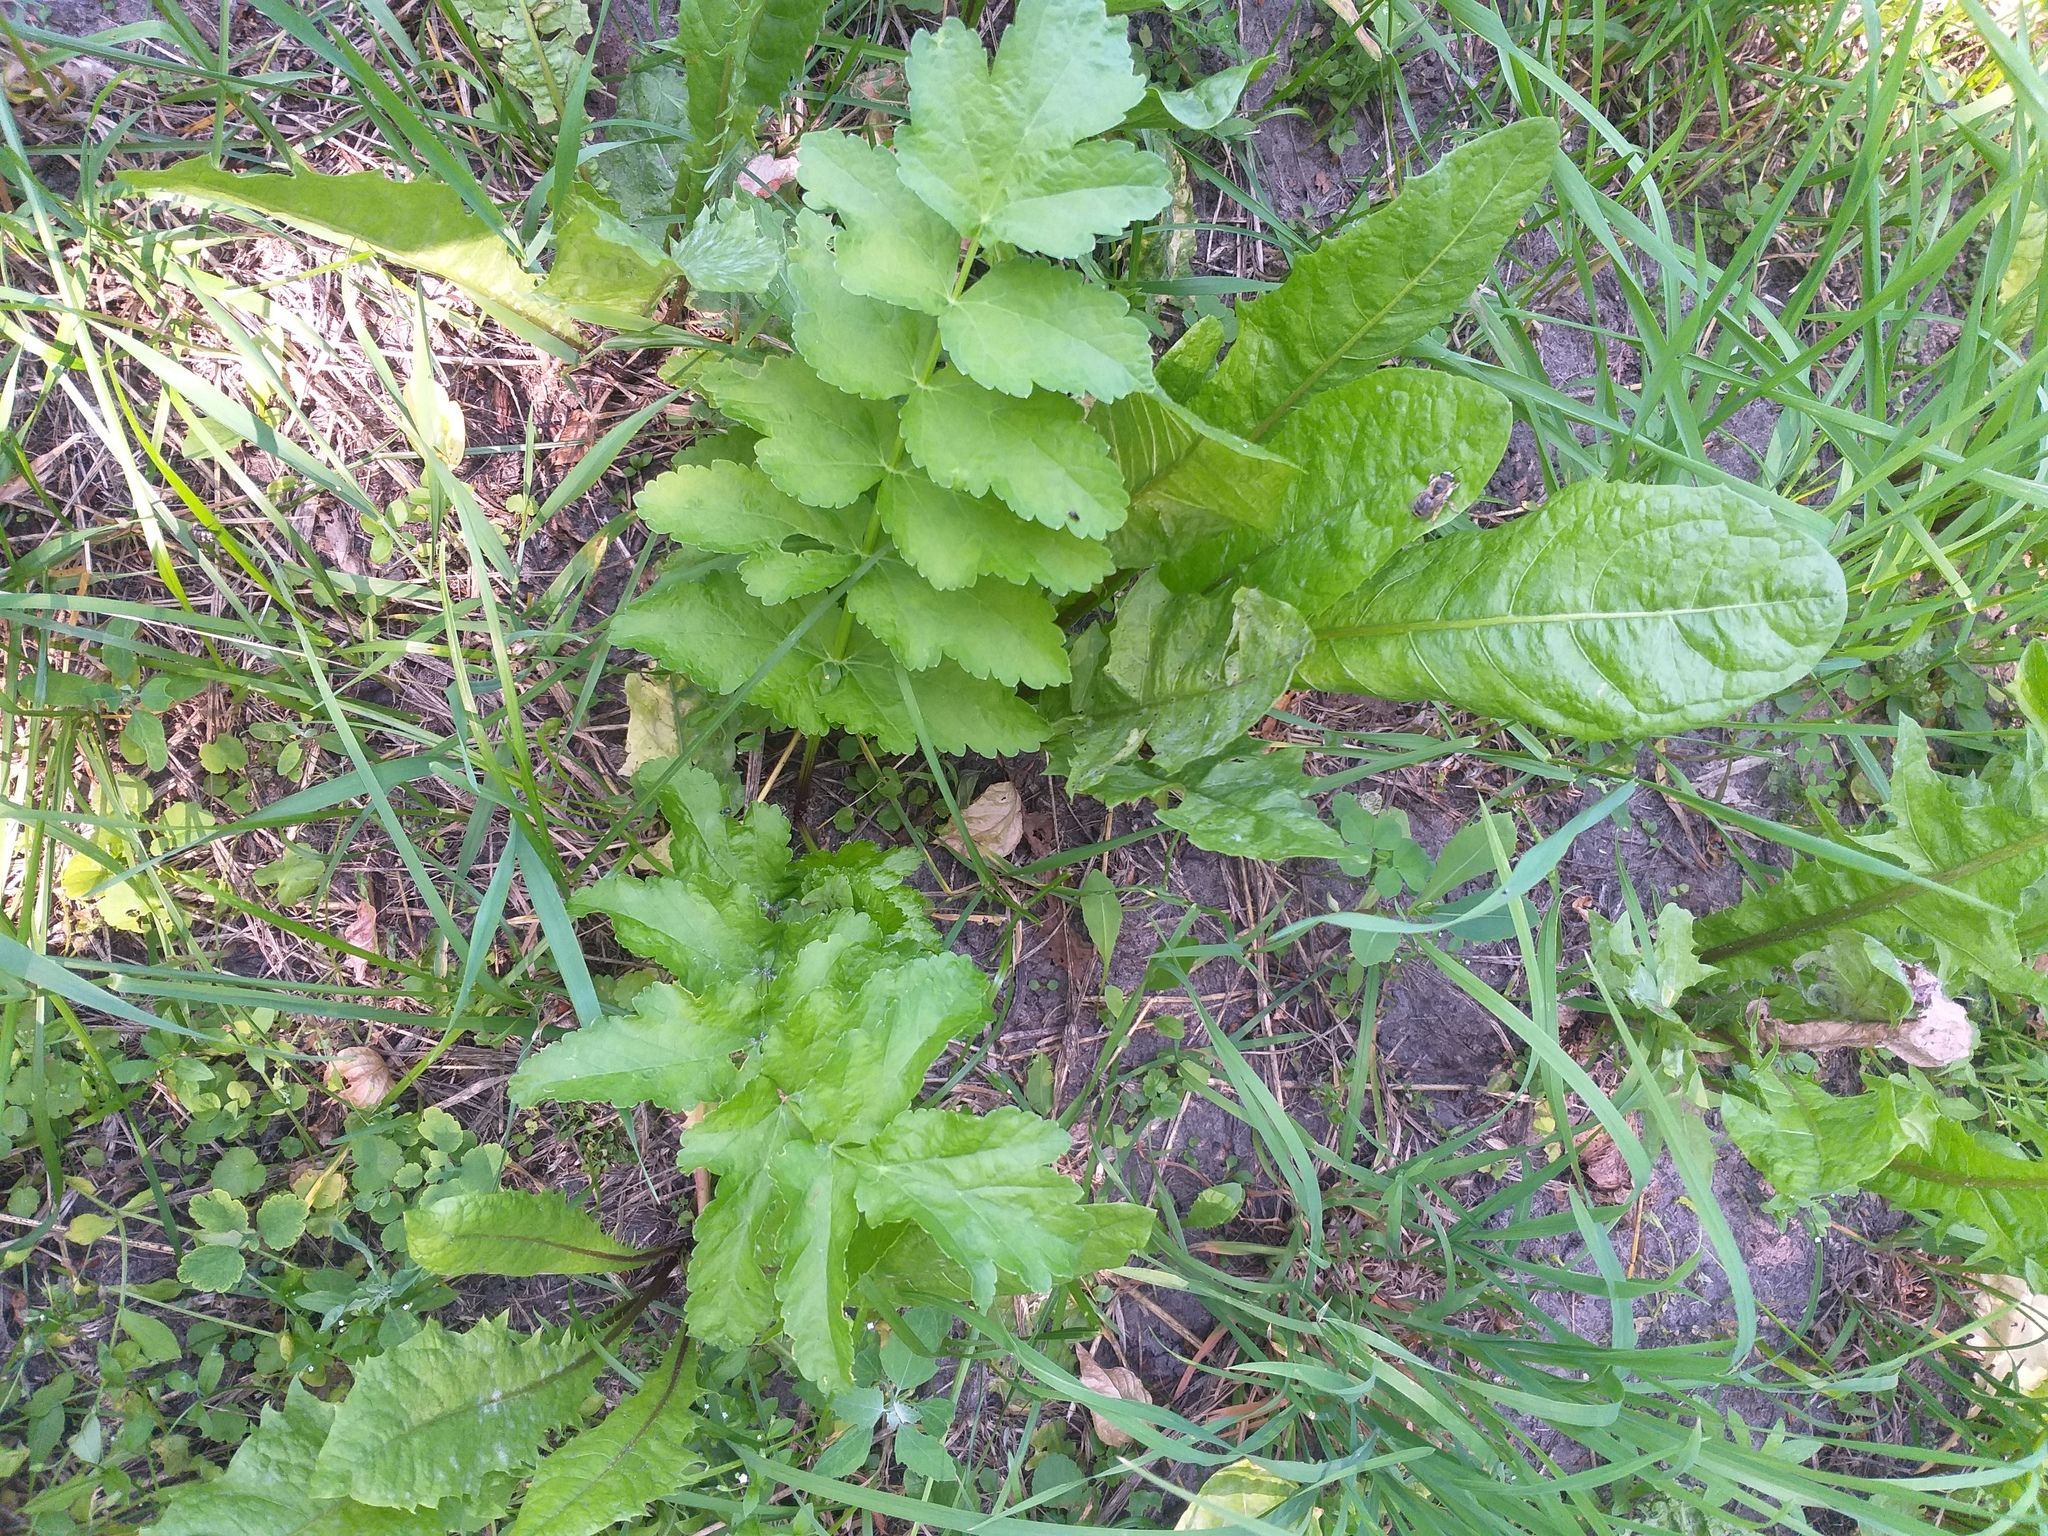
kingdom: Plantae
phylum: Tracheophyta
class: Magnoliopsida
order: Apiales
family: Apiaceae
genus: Pastinaca
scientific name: Pastinaca sativa
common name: Wild parsnip
